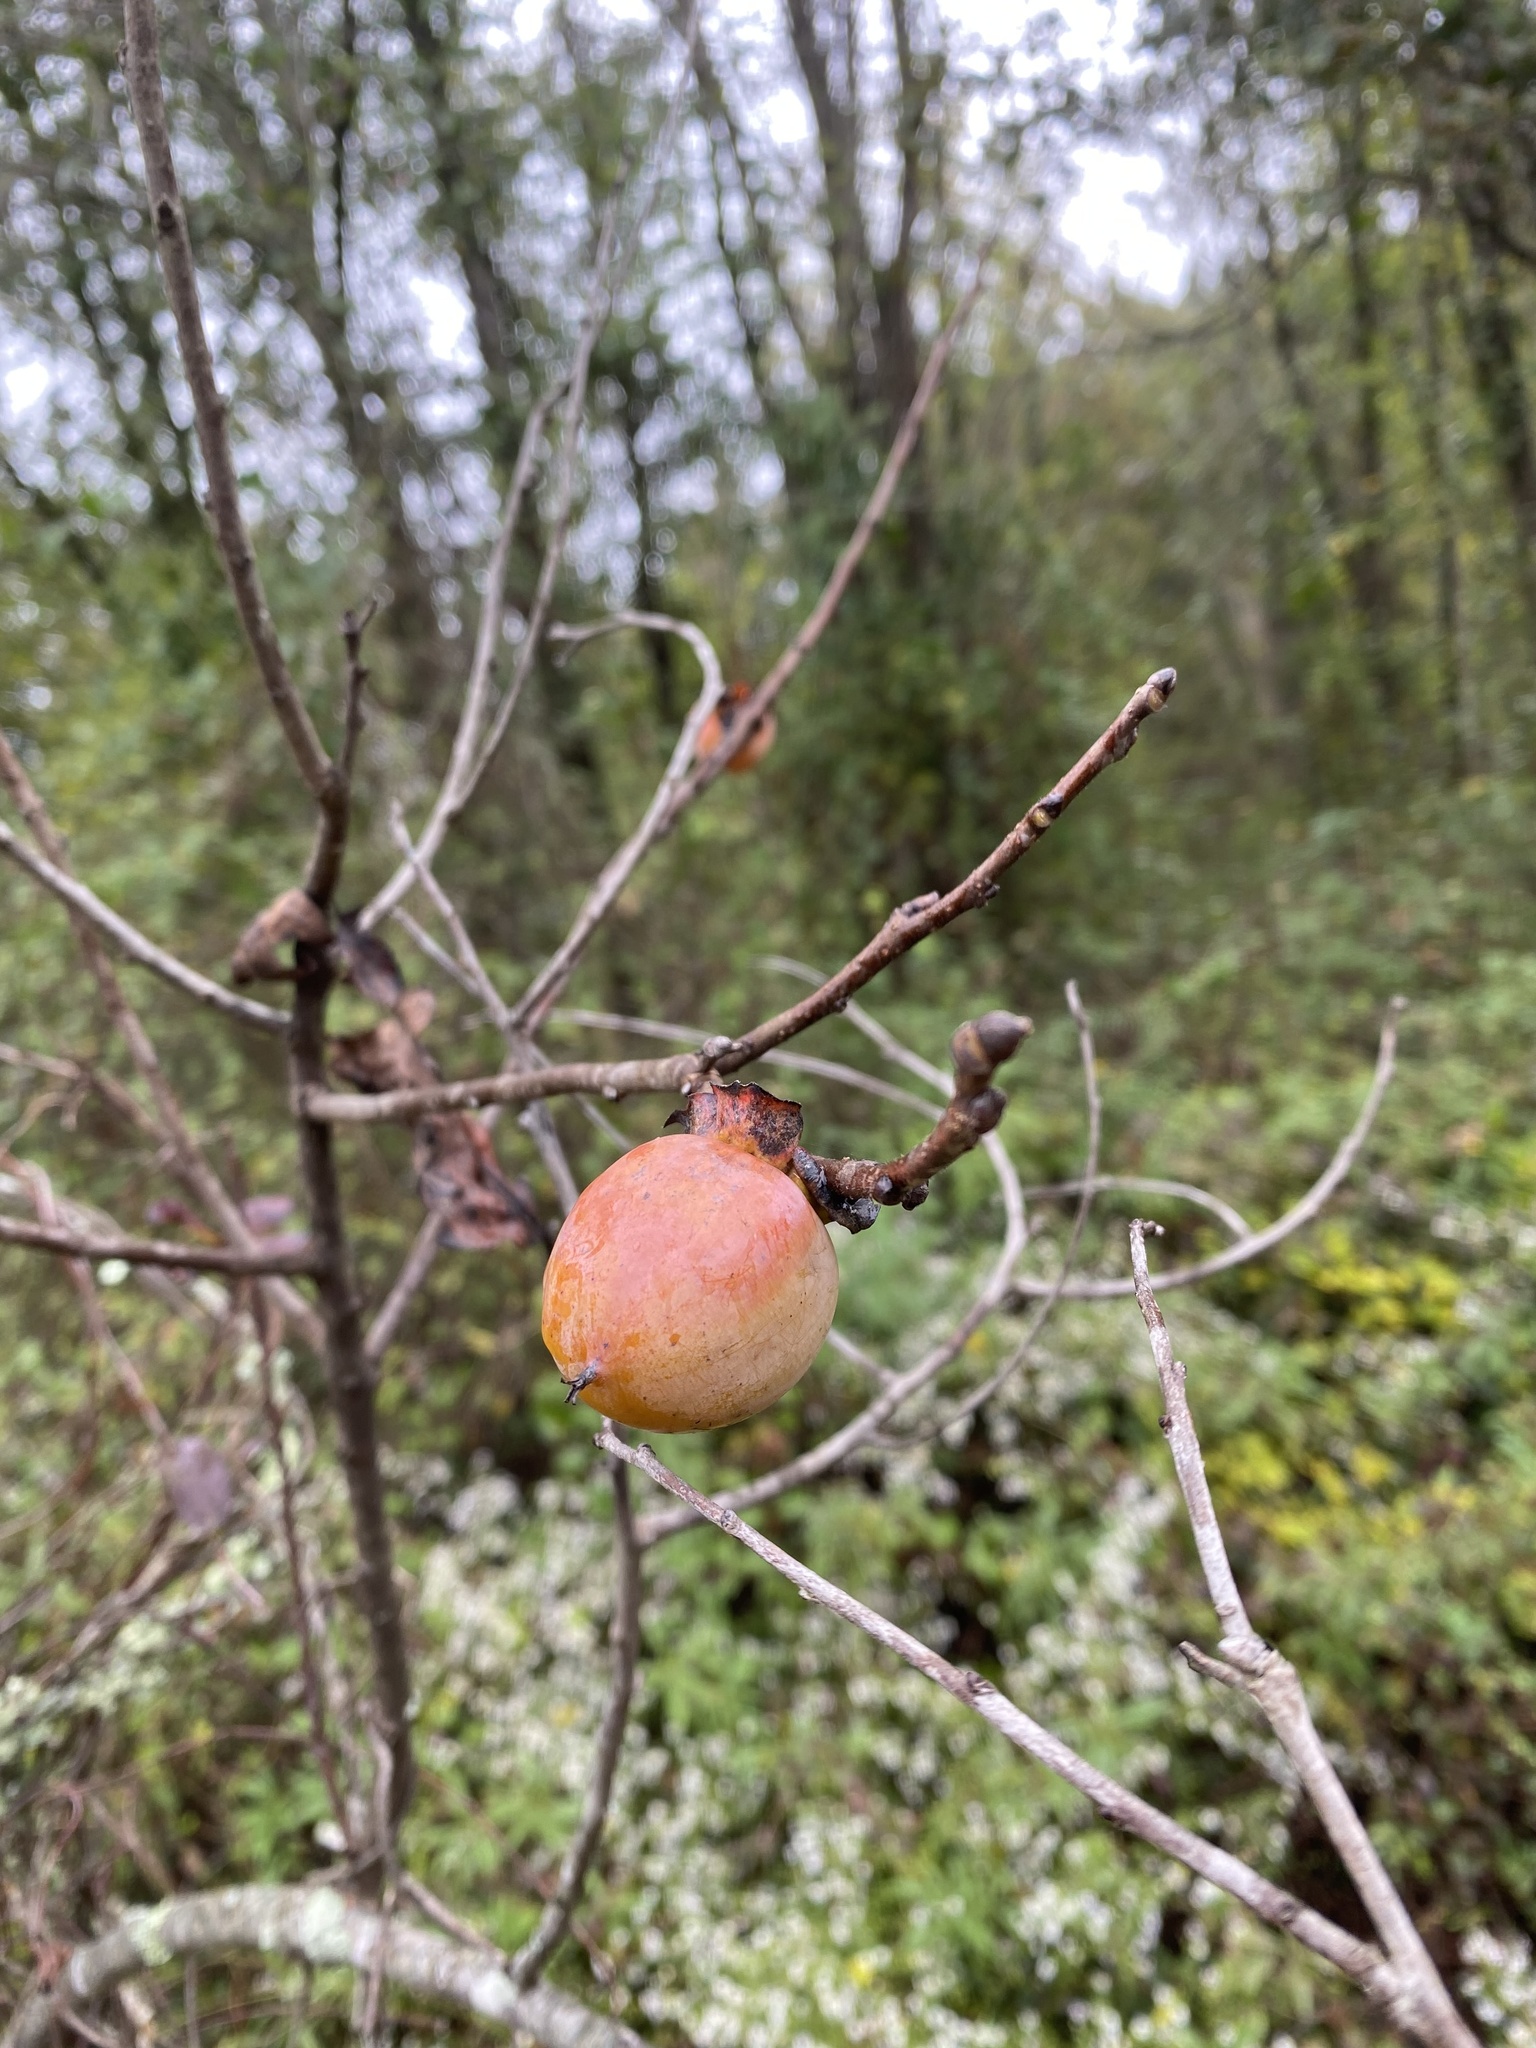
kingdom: Plantae
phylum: Tracheophyta
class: Magnoliopsida
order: Ericales
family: Ebenaceae
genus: Diospyros
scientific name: Diospyros virginiana
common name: Persimmon
